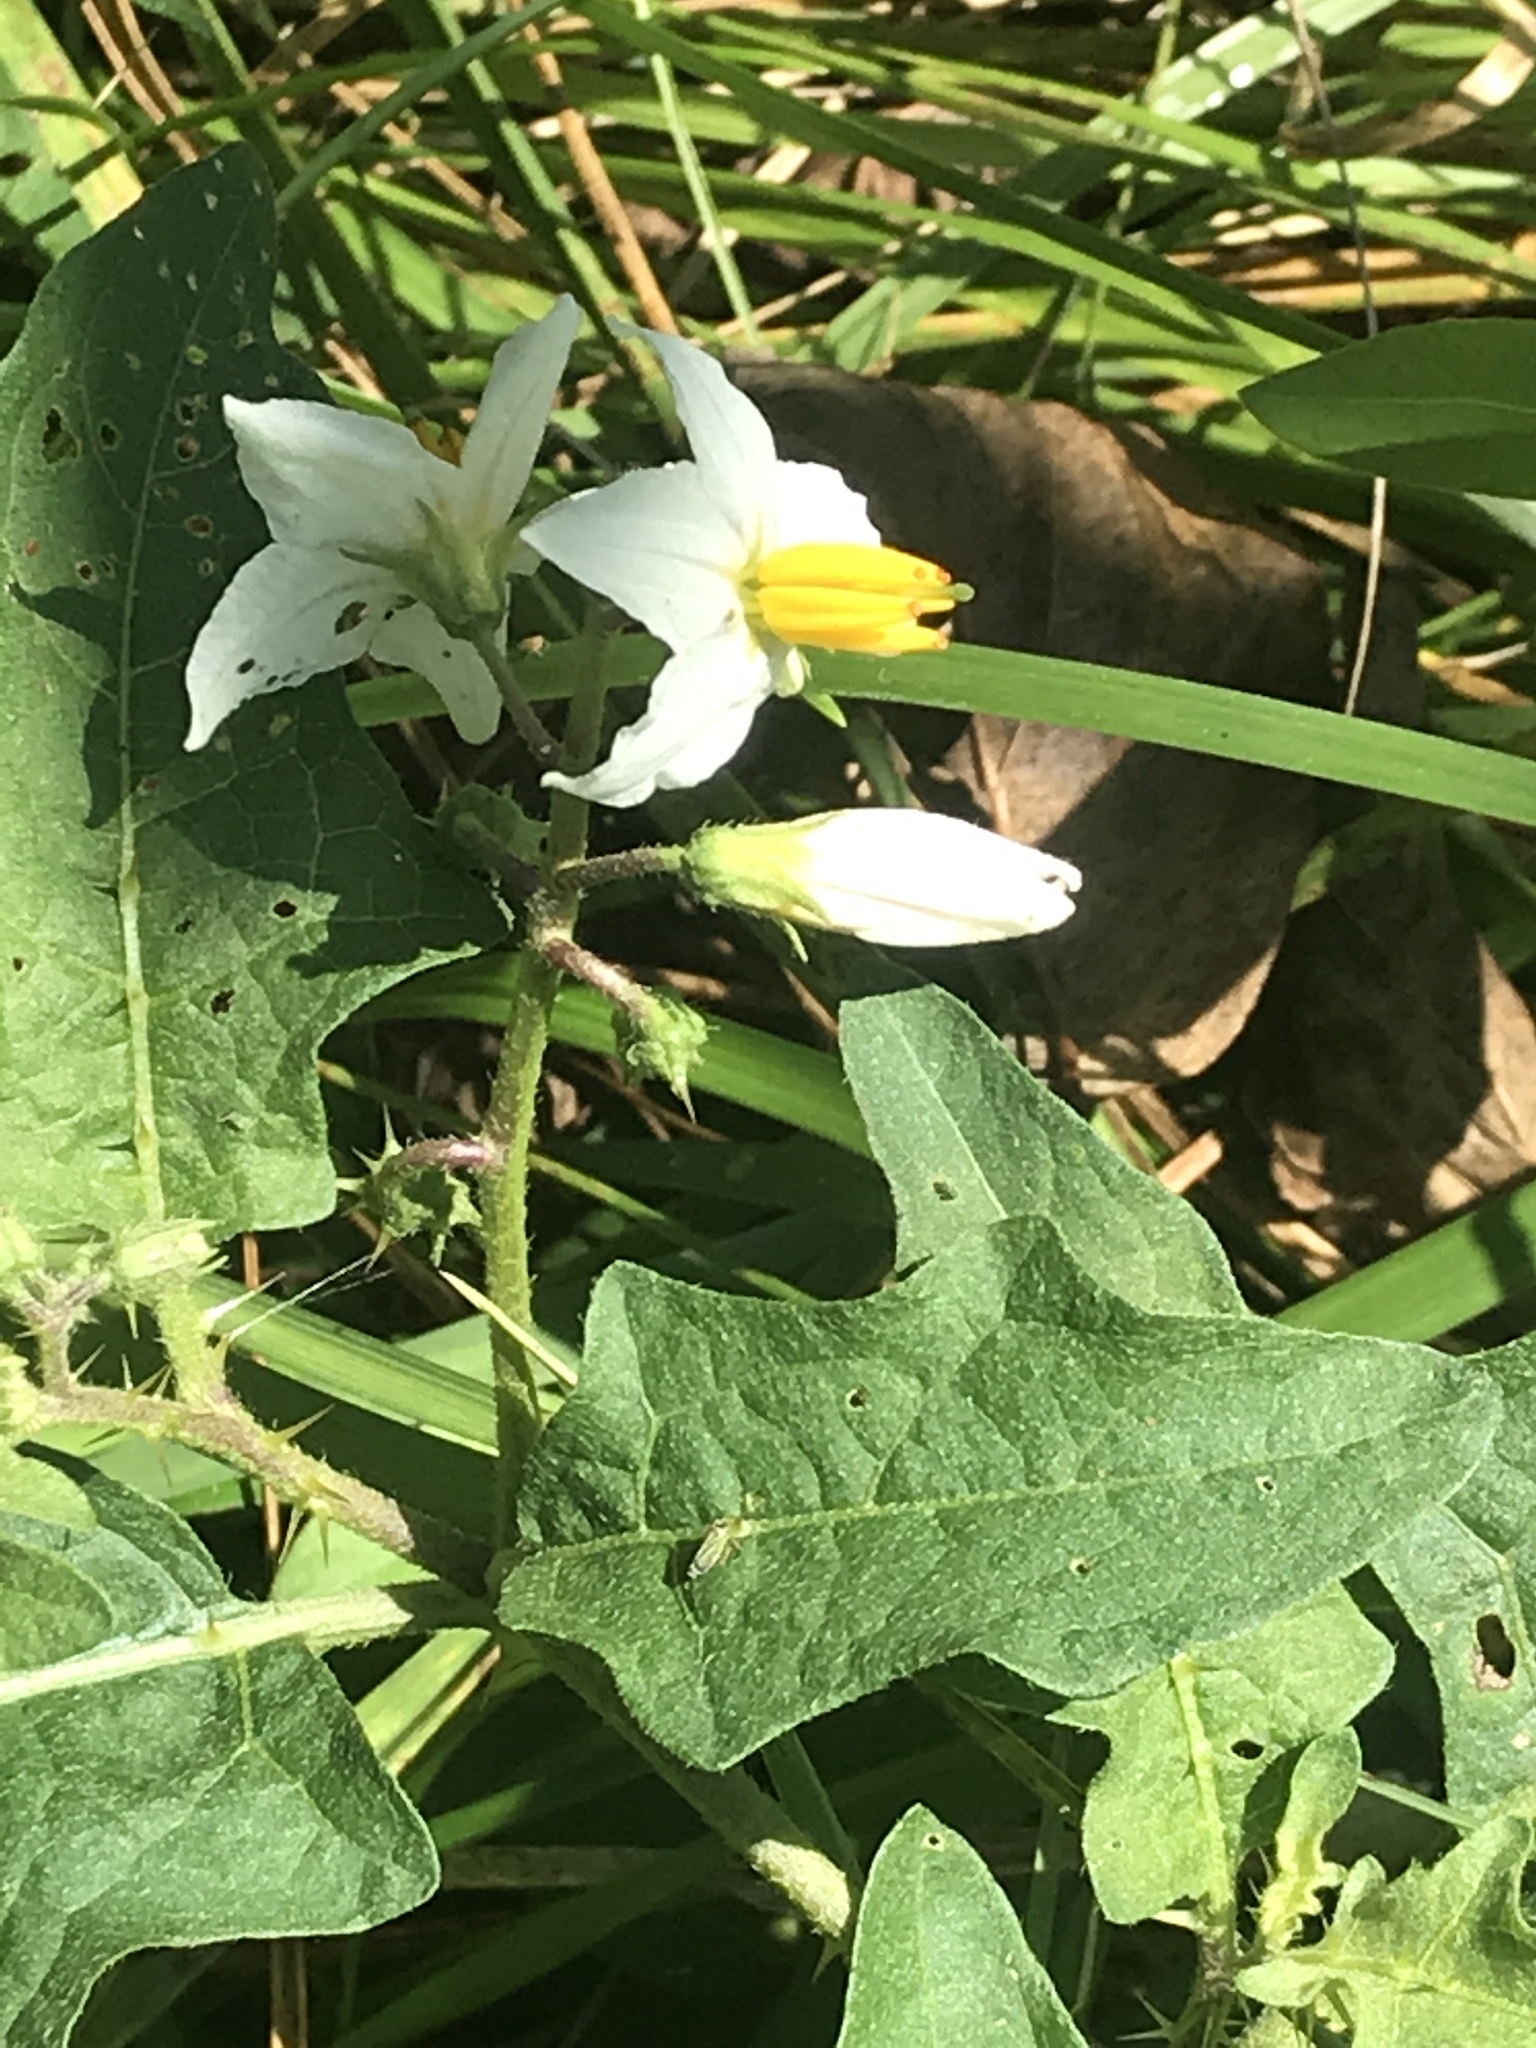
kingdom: Plantae
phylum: Tracheophyta
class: Magnoliopsida
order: Solanales
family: Solanaceae
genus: Solanum
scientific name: Solanum carolinense
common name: Horse-nettle
